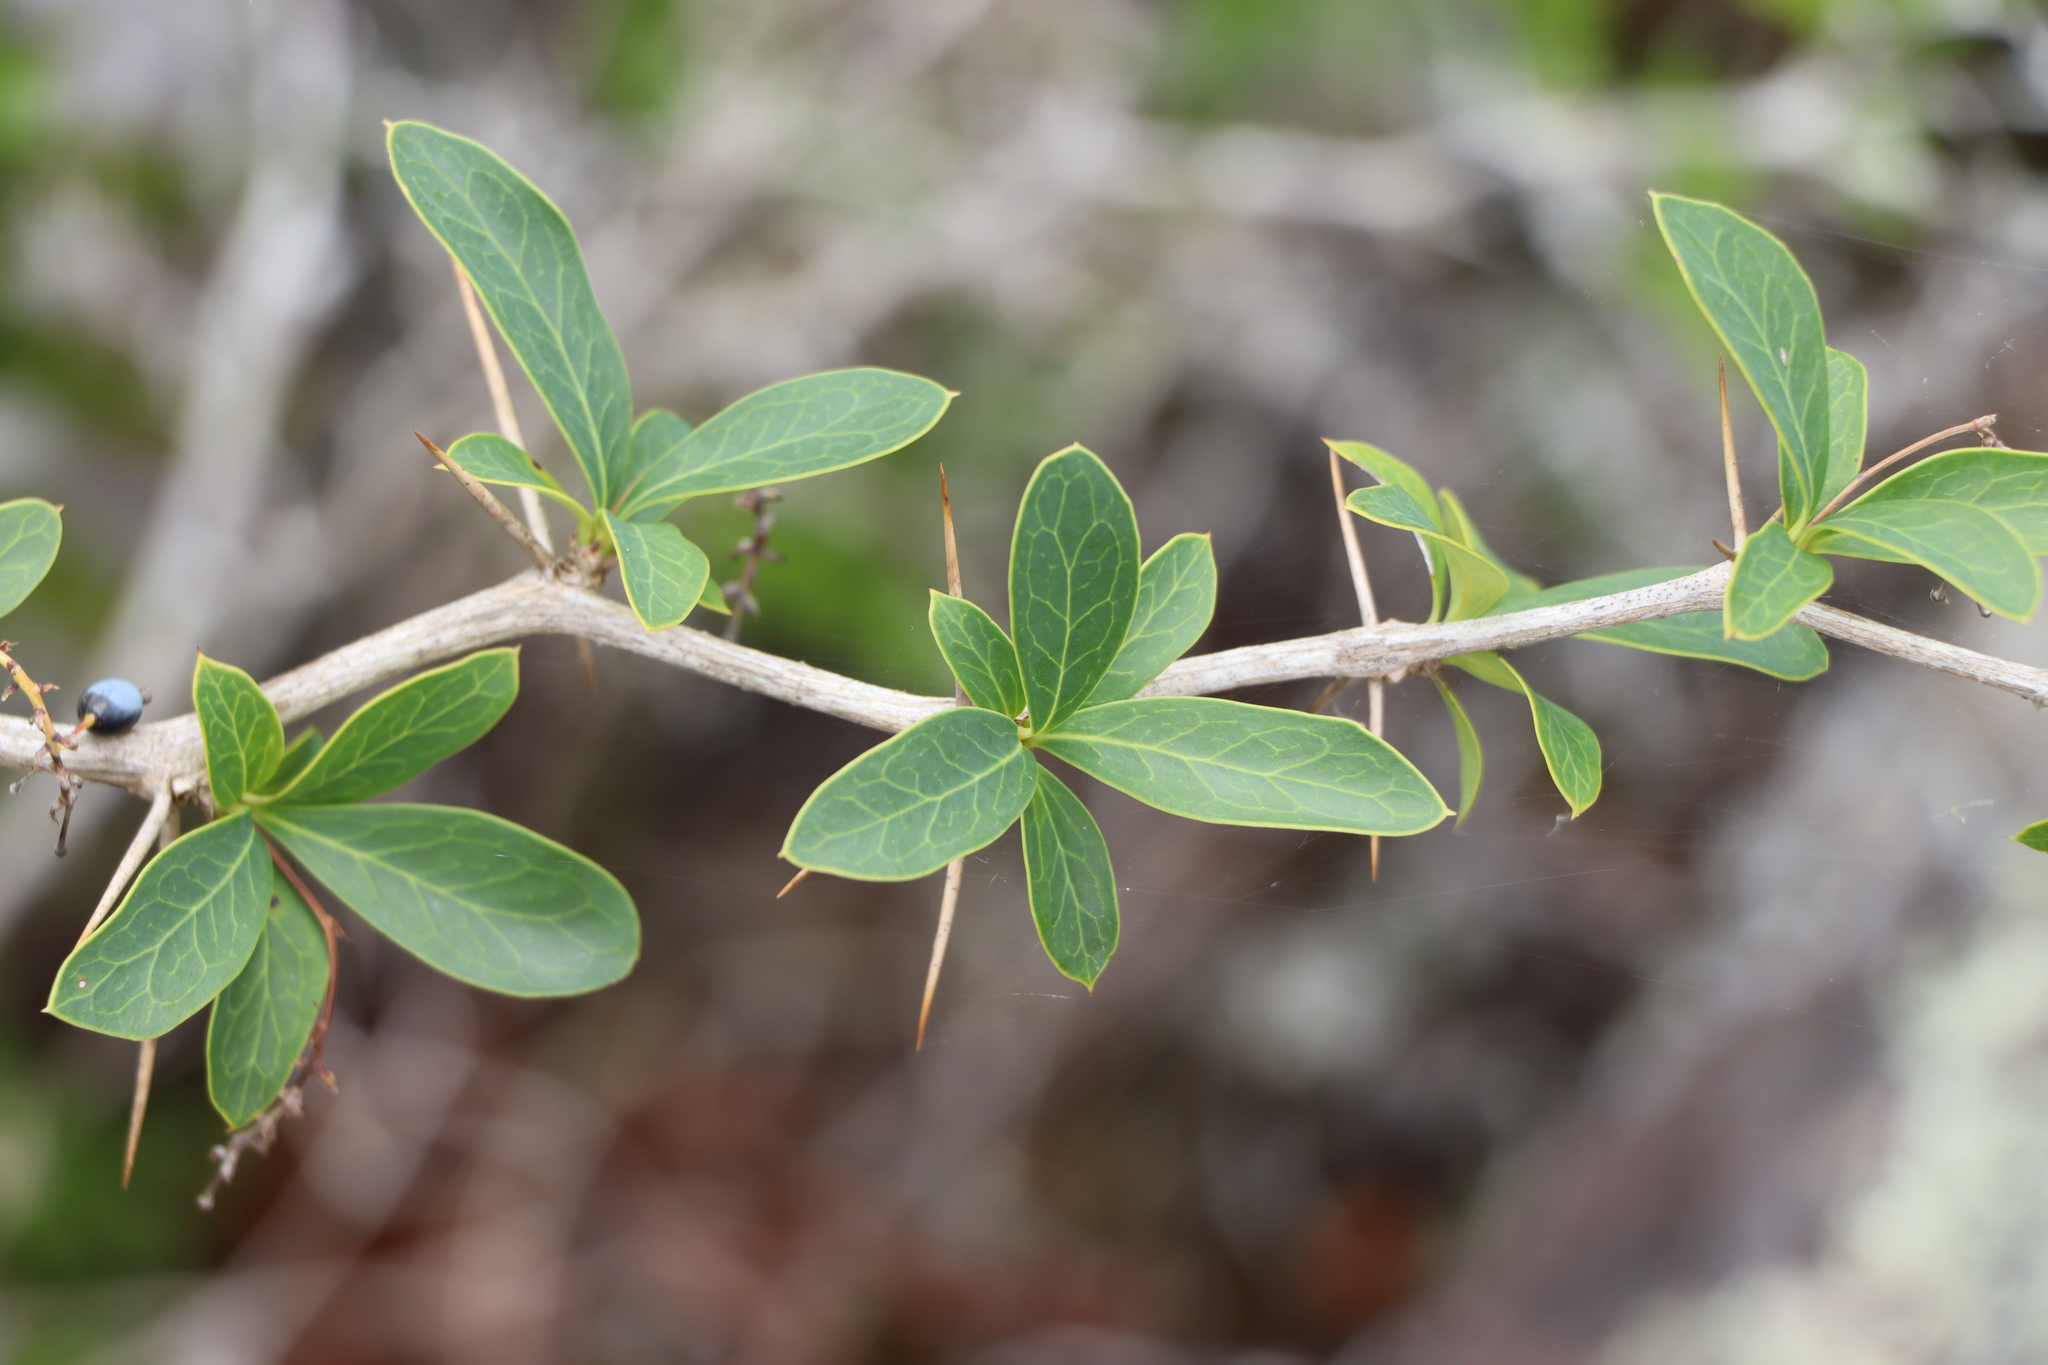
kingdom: Plantae
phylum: Tracheophyta
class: Magnoliopsida
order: Ranunculales
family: Berberidaceae
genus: Berberis
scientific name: Berberis laurina
